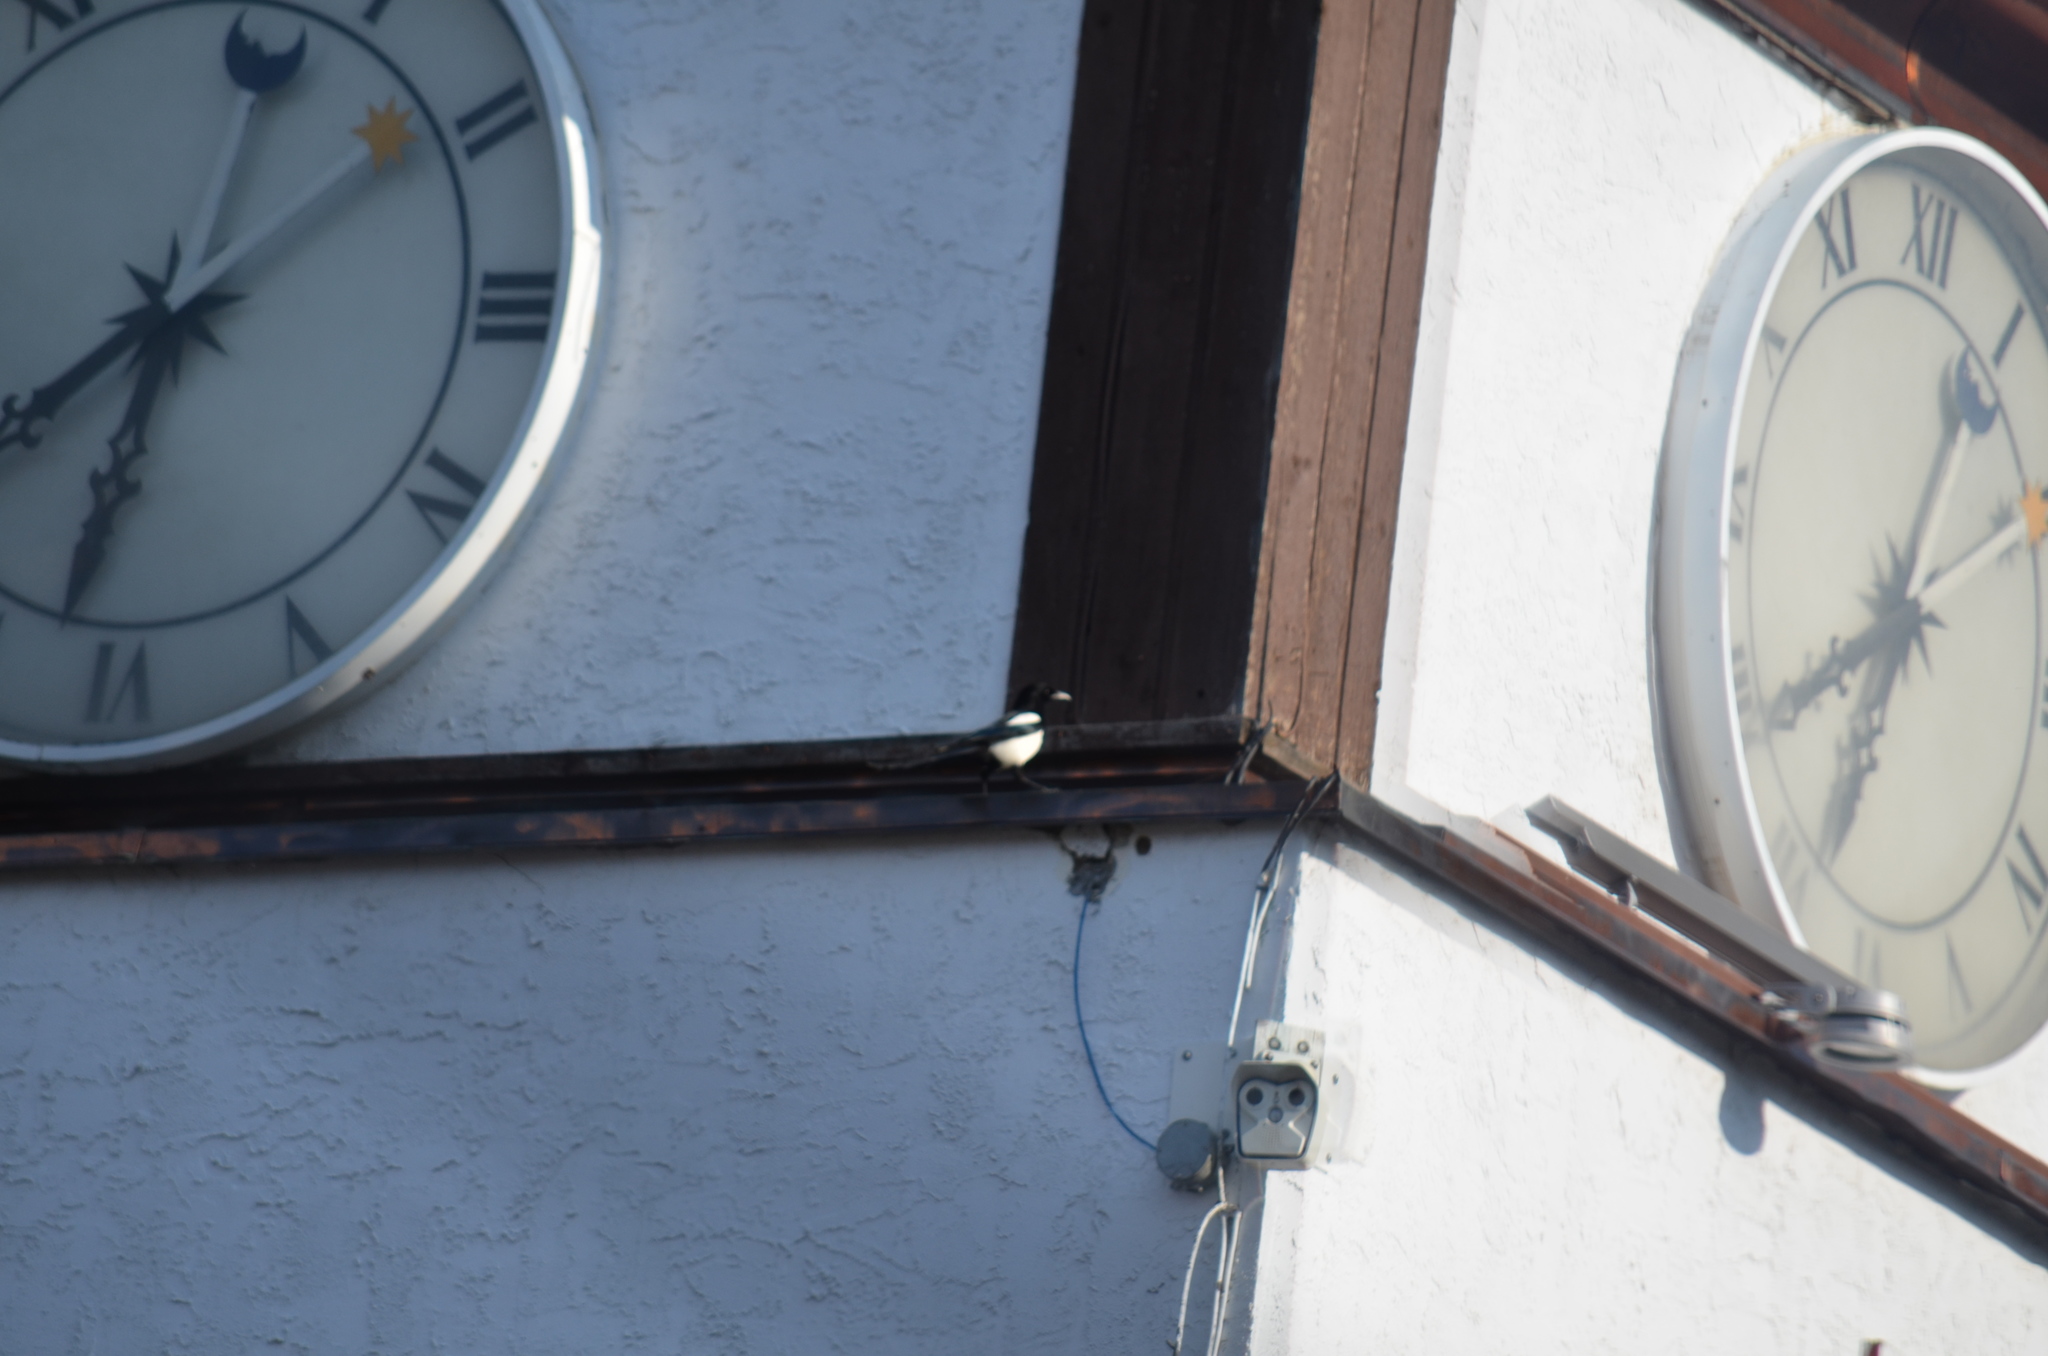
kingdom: Animalia
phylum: Chordata
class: Aves
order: Passeriformes
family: Corvidae
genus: Pica
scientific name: Pica hudsonia
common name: Black-billed magpie
